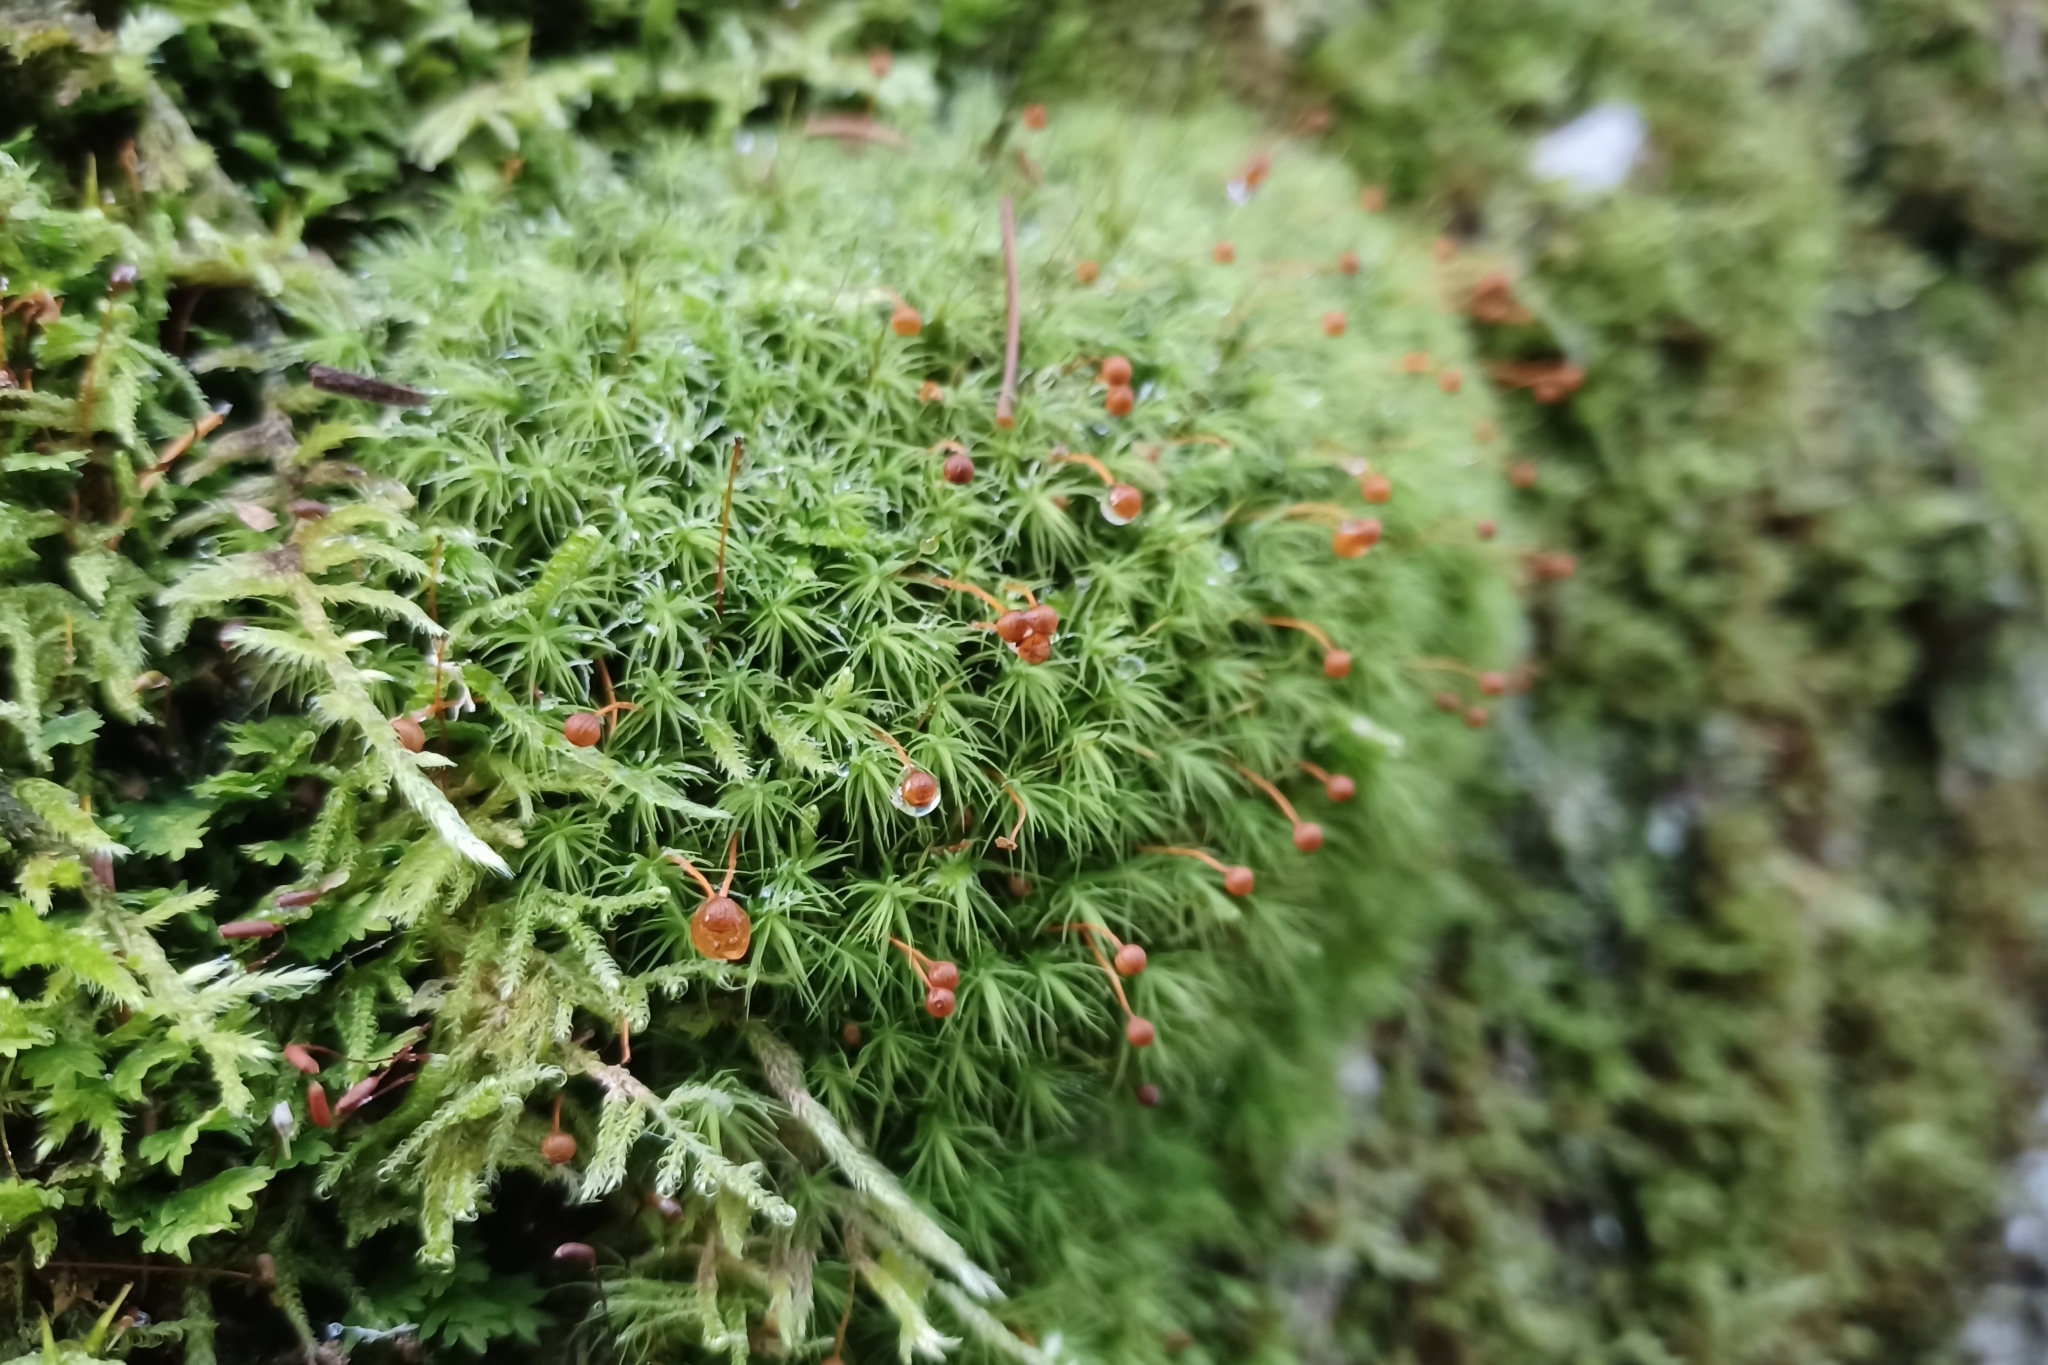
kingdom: Plantae
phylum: Bryophyta
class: Bryopsida
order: Bartramiales
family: Bartramiaceae
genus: Bartramia
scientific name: Bartramia ithyphylla
